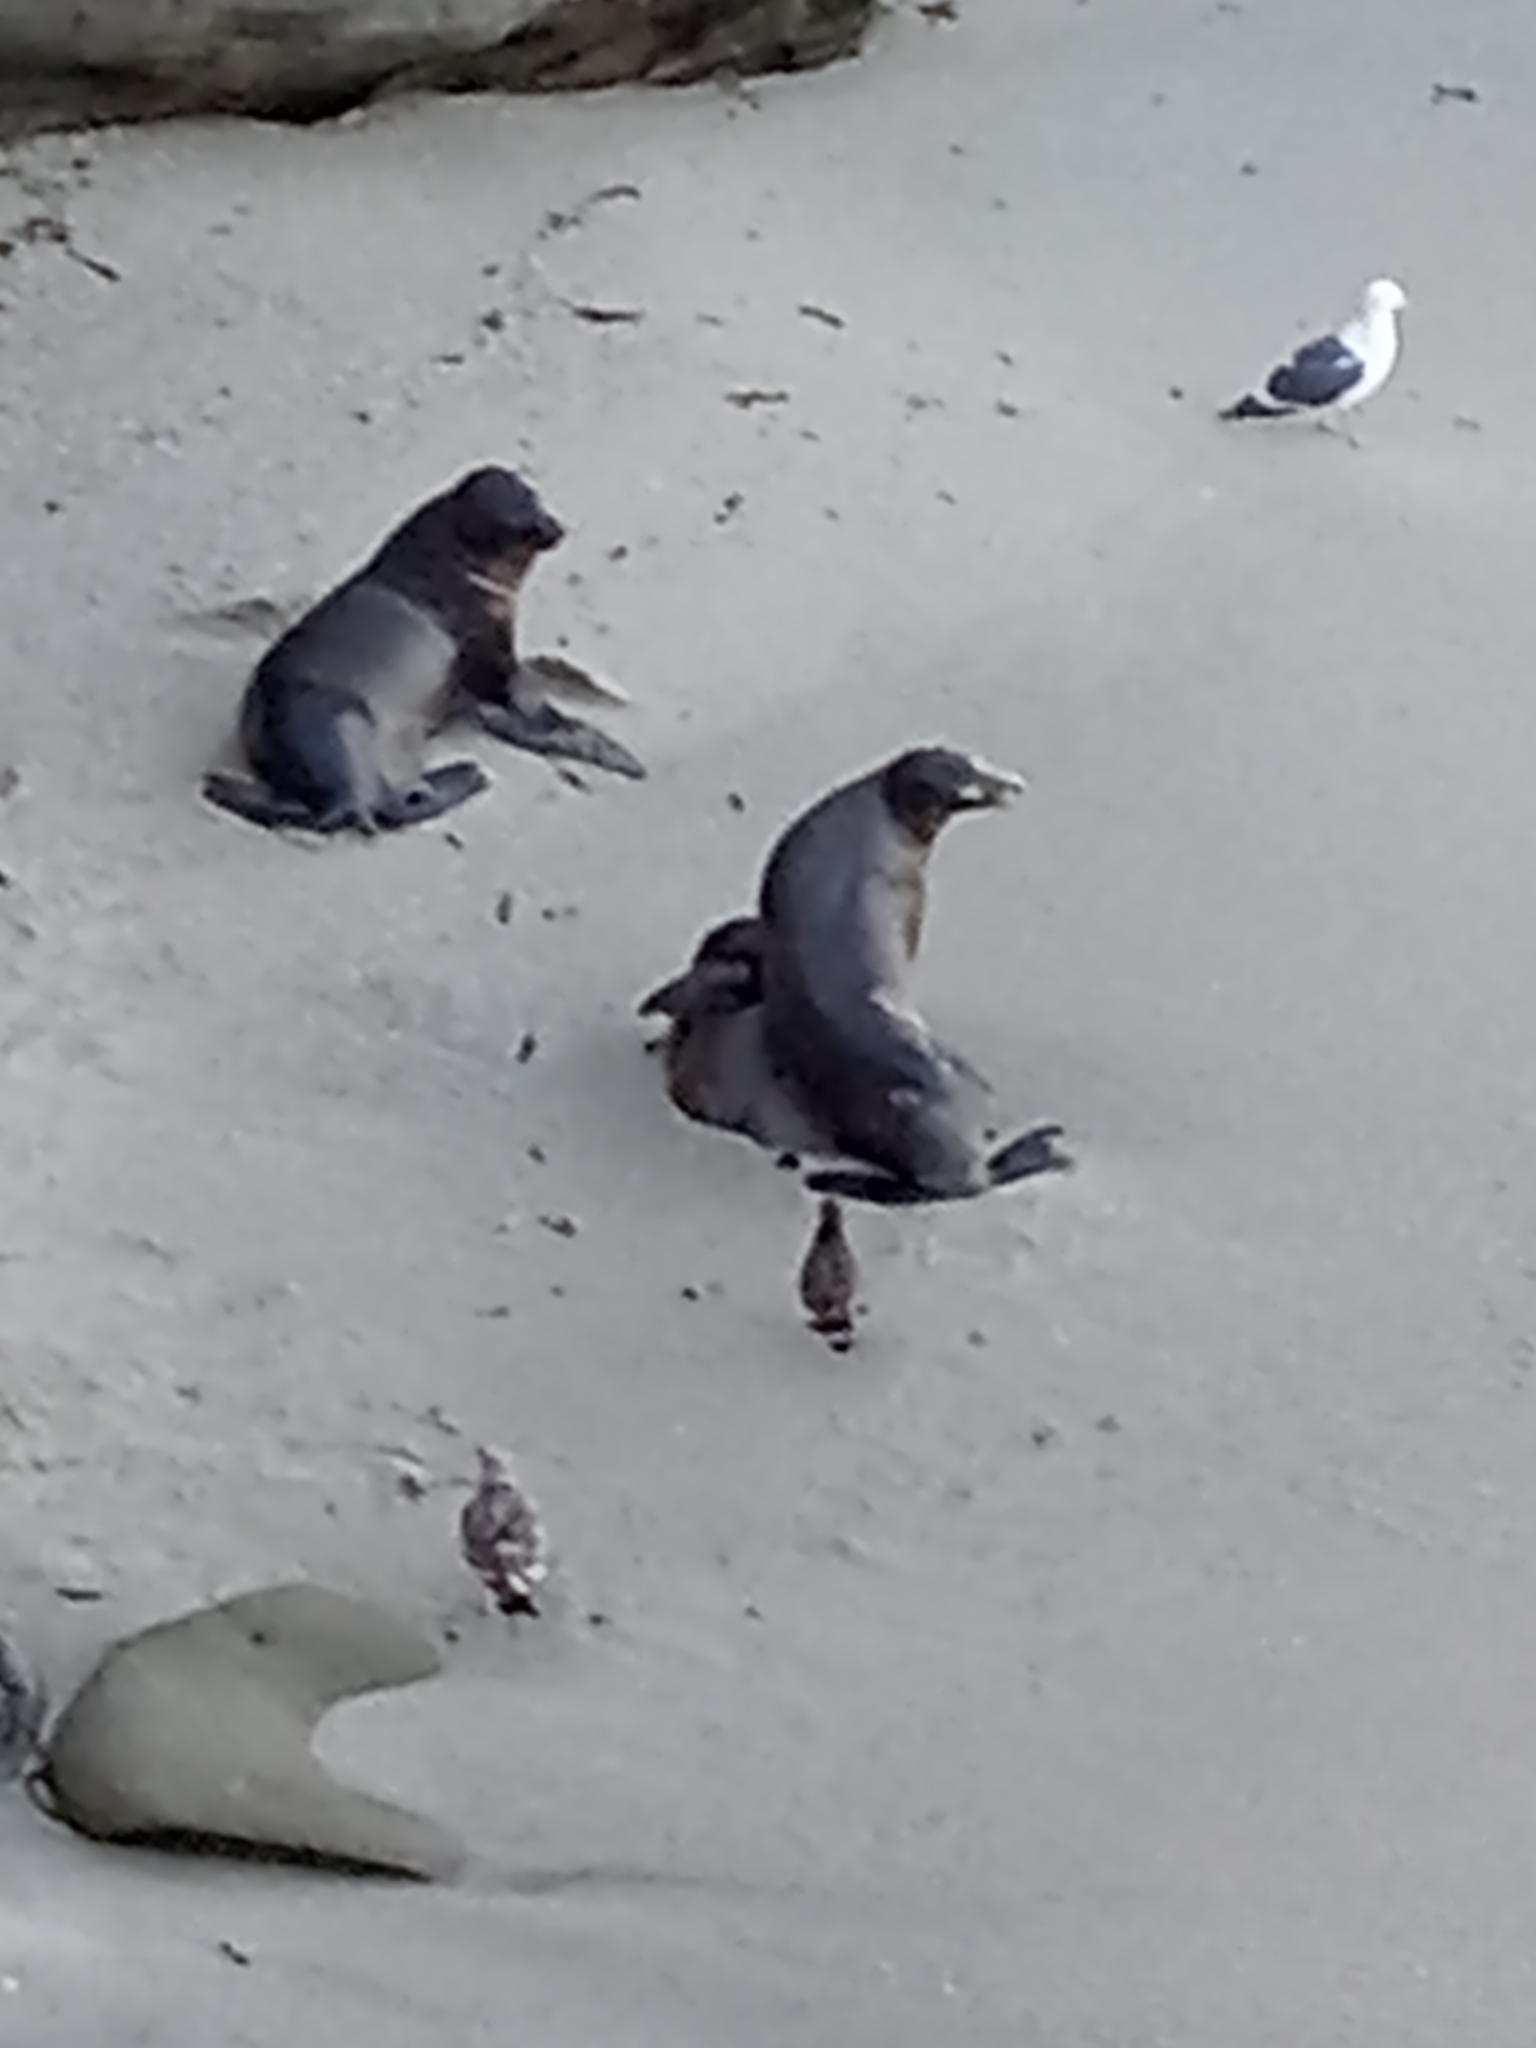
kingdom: Animalia
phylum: Chordata
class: Mammalia
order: Carnivora
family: Otariidae
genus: Zalophus
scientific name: Zalophus californianus
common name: California sea lion
